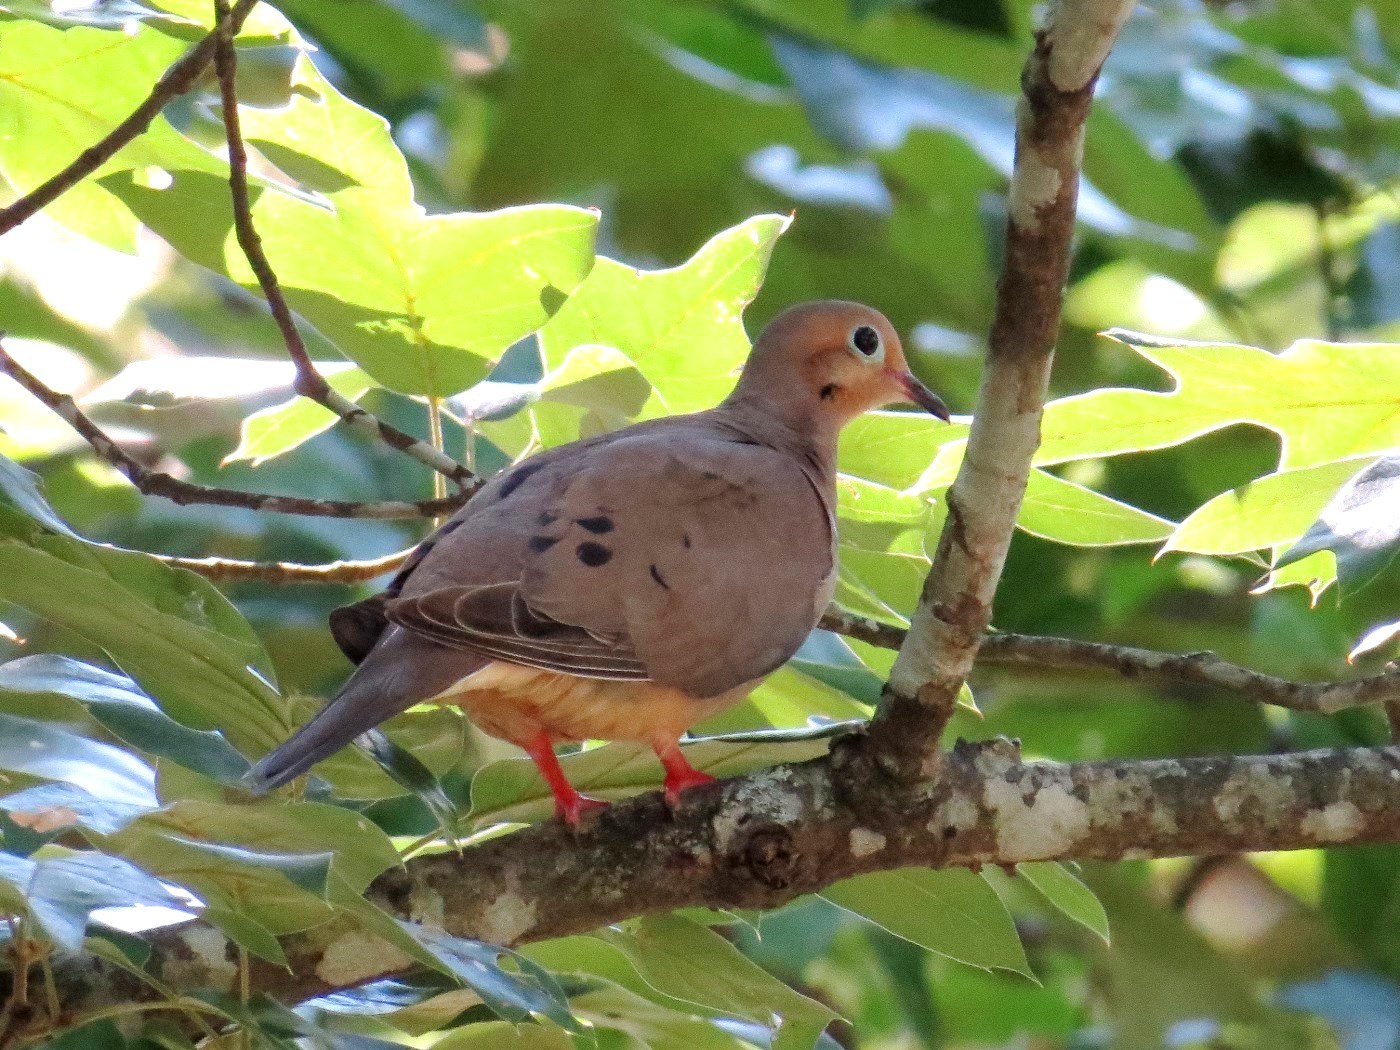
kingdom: Animalia
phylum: Chordata
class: Aves
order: Columbiformes
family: Columbidae
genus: Zenaida
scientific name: Zenaida macroura
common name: Mourning dove
